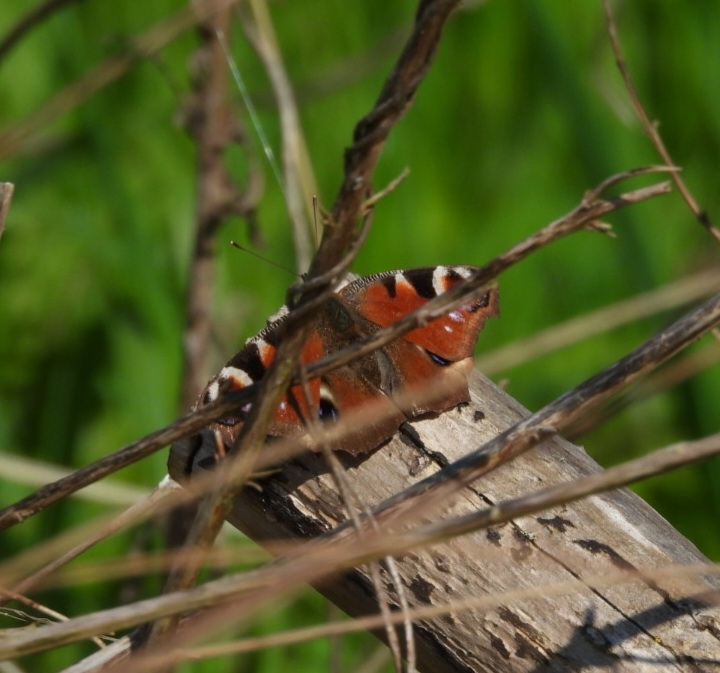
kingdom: Animalia
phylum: Arthropoda
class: Insecta
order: Lepidoptera
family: Nymphalidae
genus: Aglais
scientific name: Aglais io
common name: Peacock
